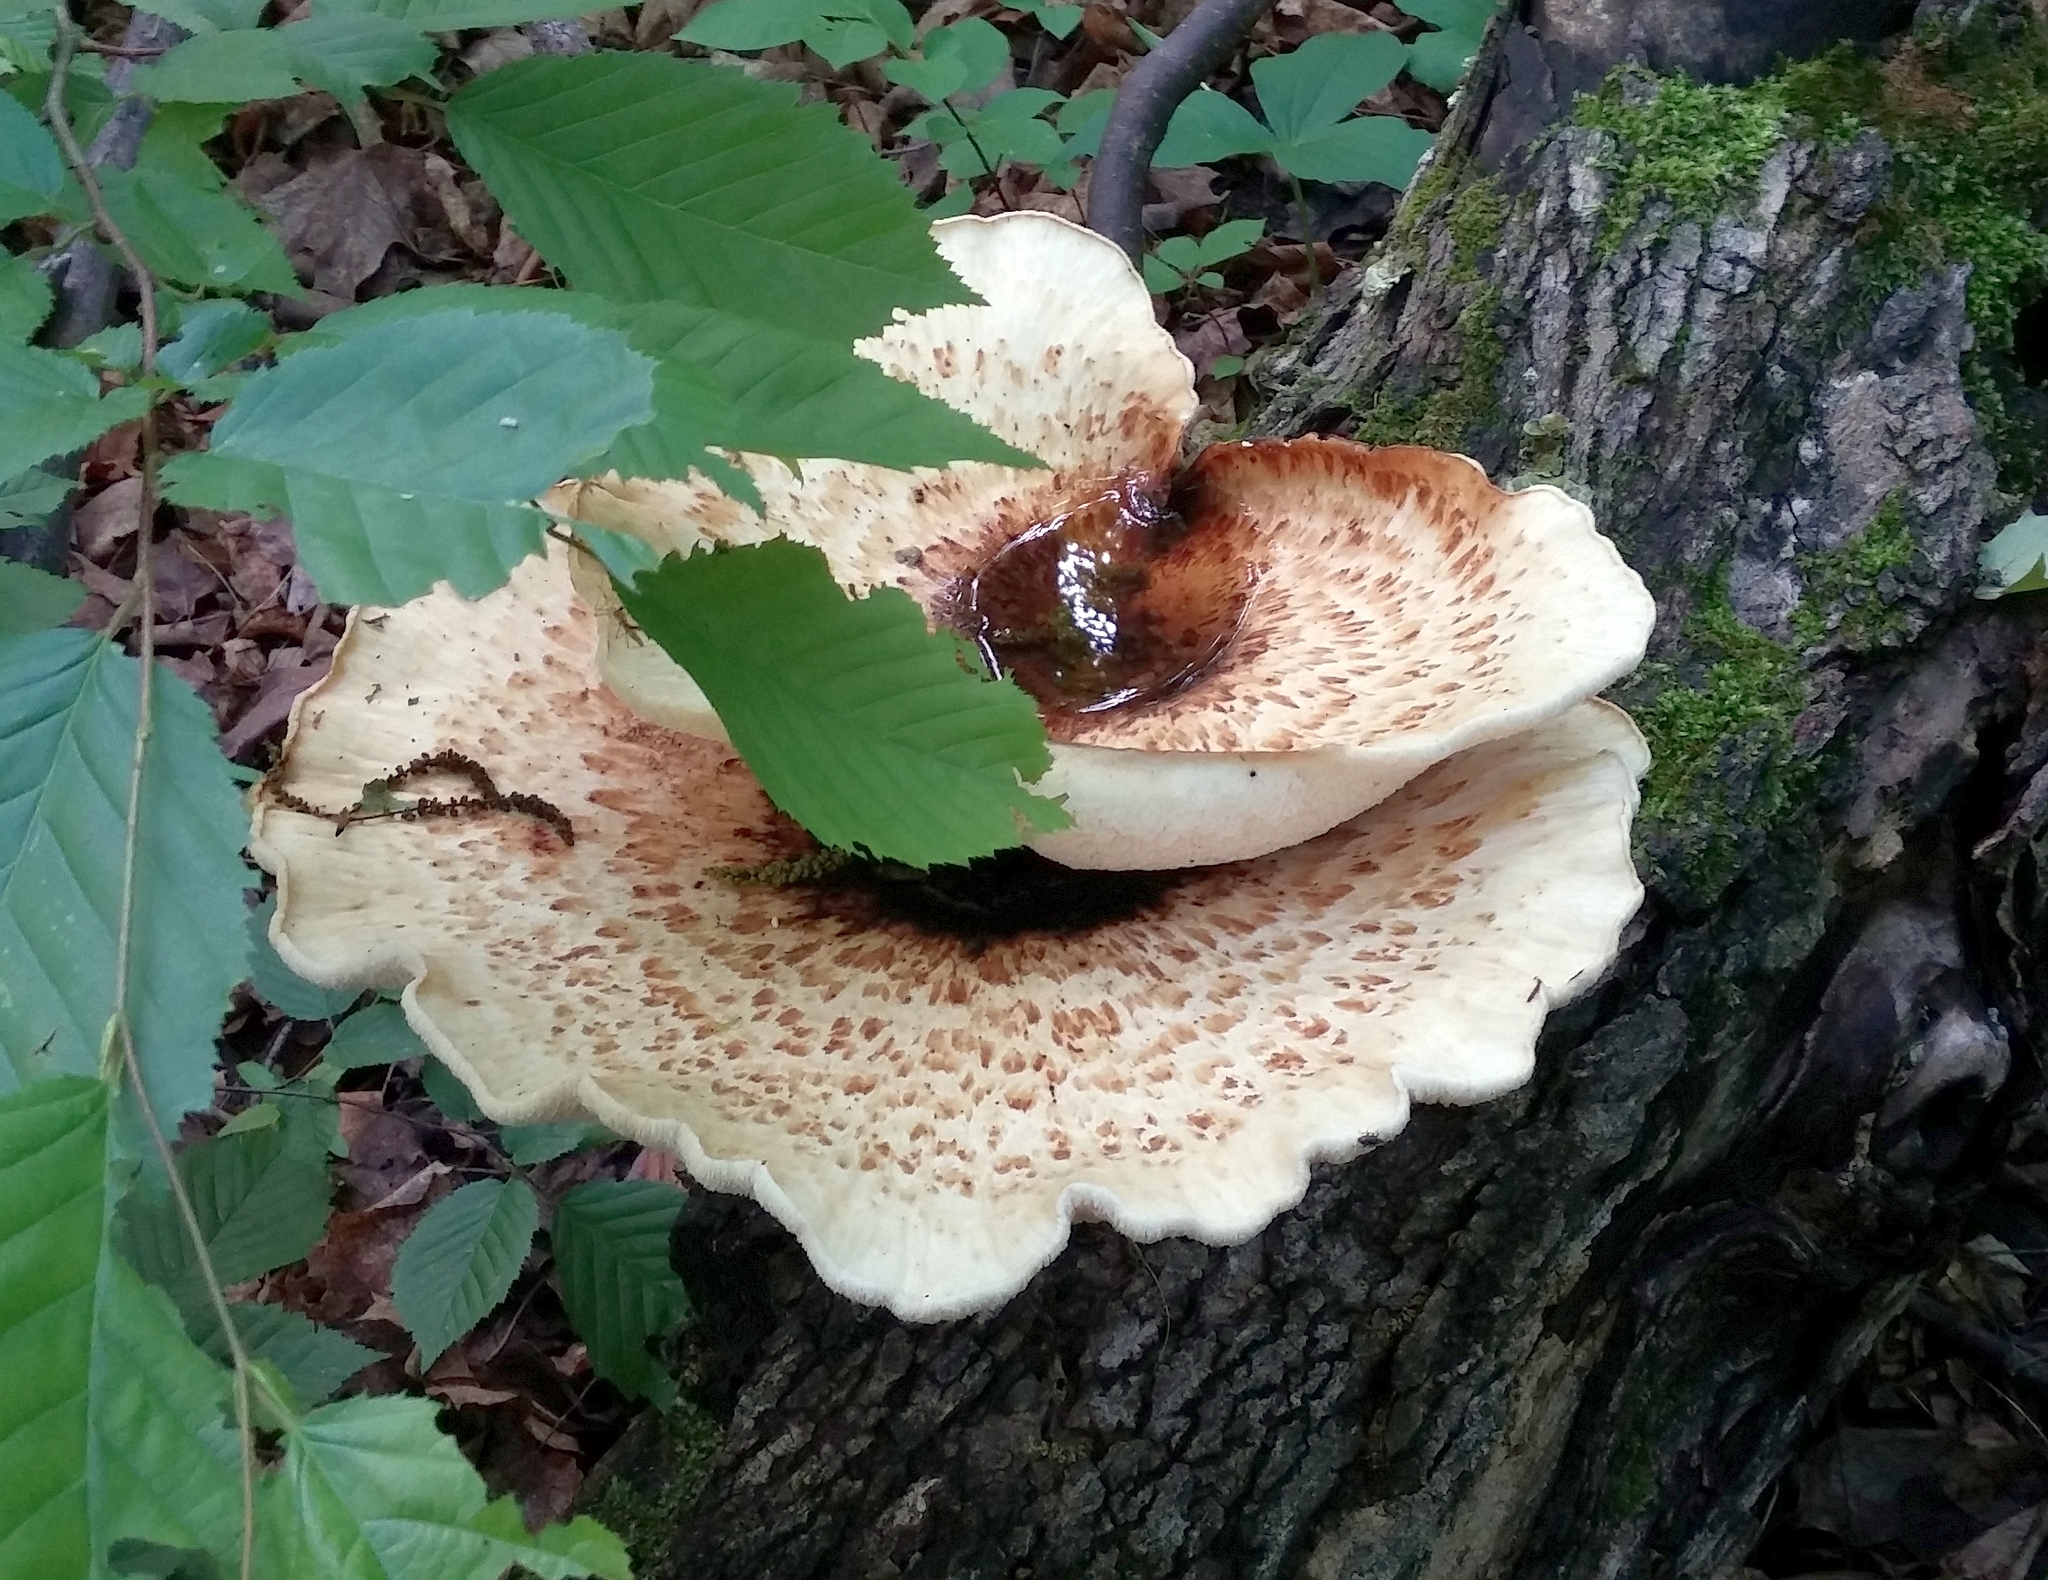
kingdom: Fungi
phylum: Basidiomycota
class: Agaricomycetes
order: Polyporales
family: Polyporaceae
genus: Cerioporus
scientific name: Cerioporus squamosus
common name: Dryad's saddle
